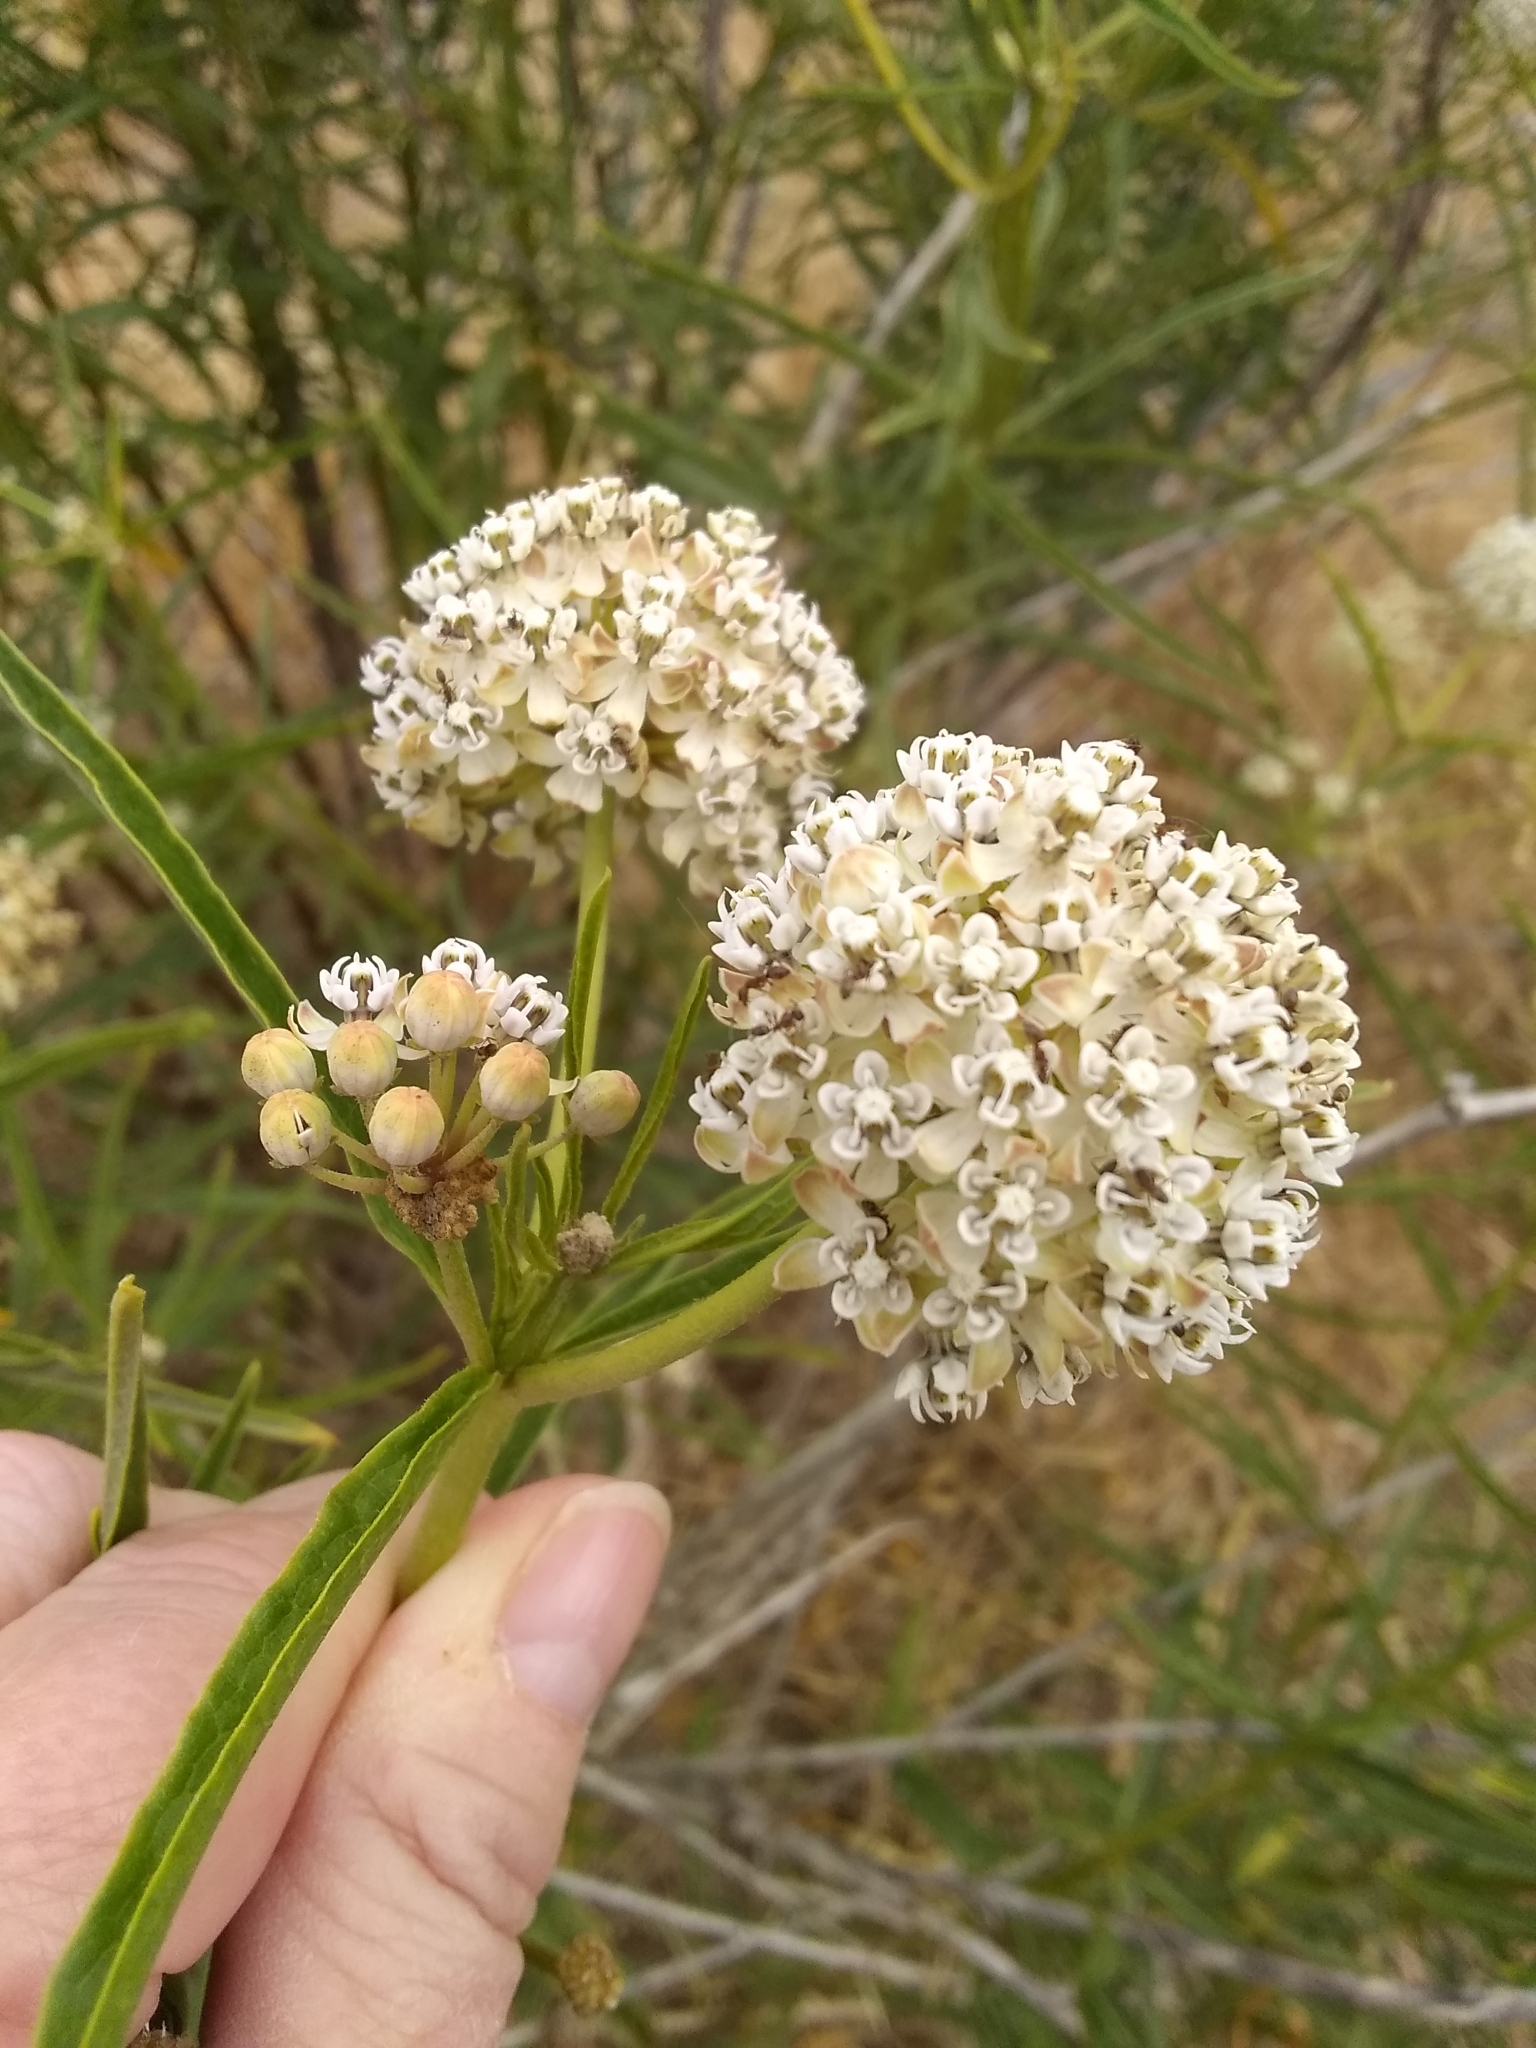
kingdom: Plantae
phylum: Tracheophyta
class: Magnoliopsida
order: Gentianales
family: Apocynaceae
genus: Asclepias
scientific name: Asclepias fascicularis
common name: Mexican milkweed
